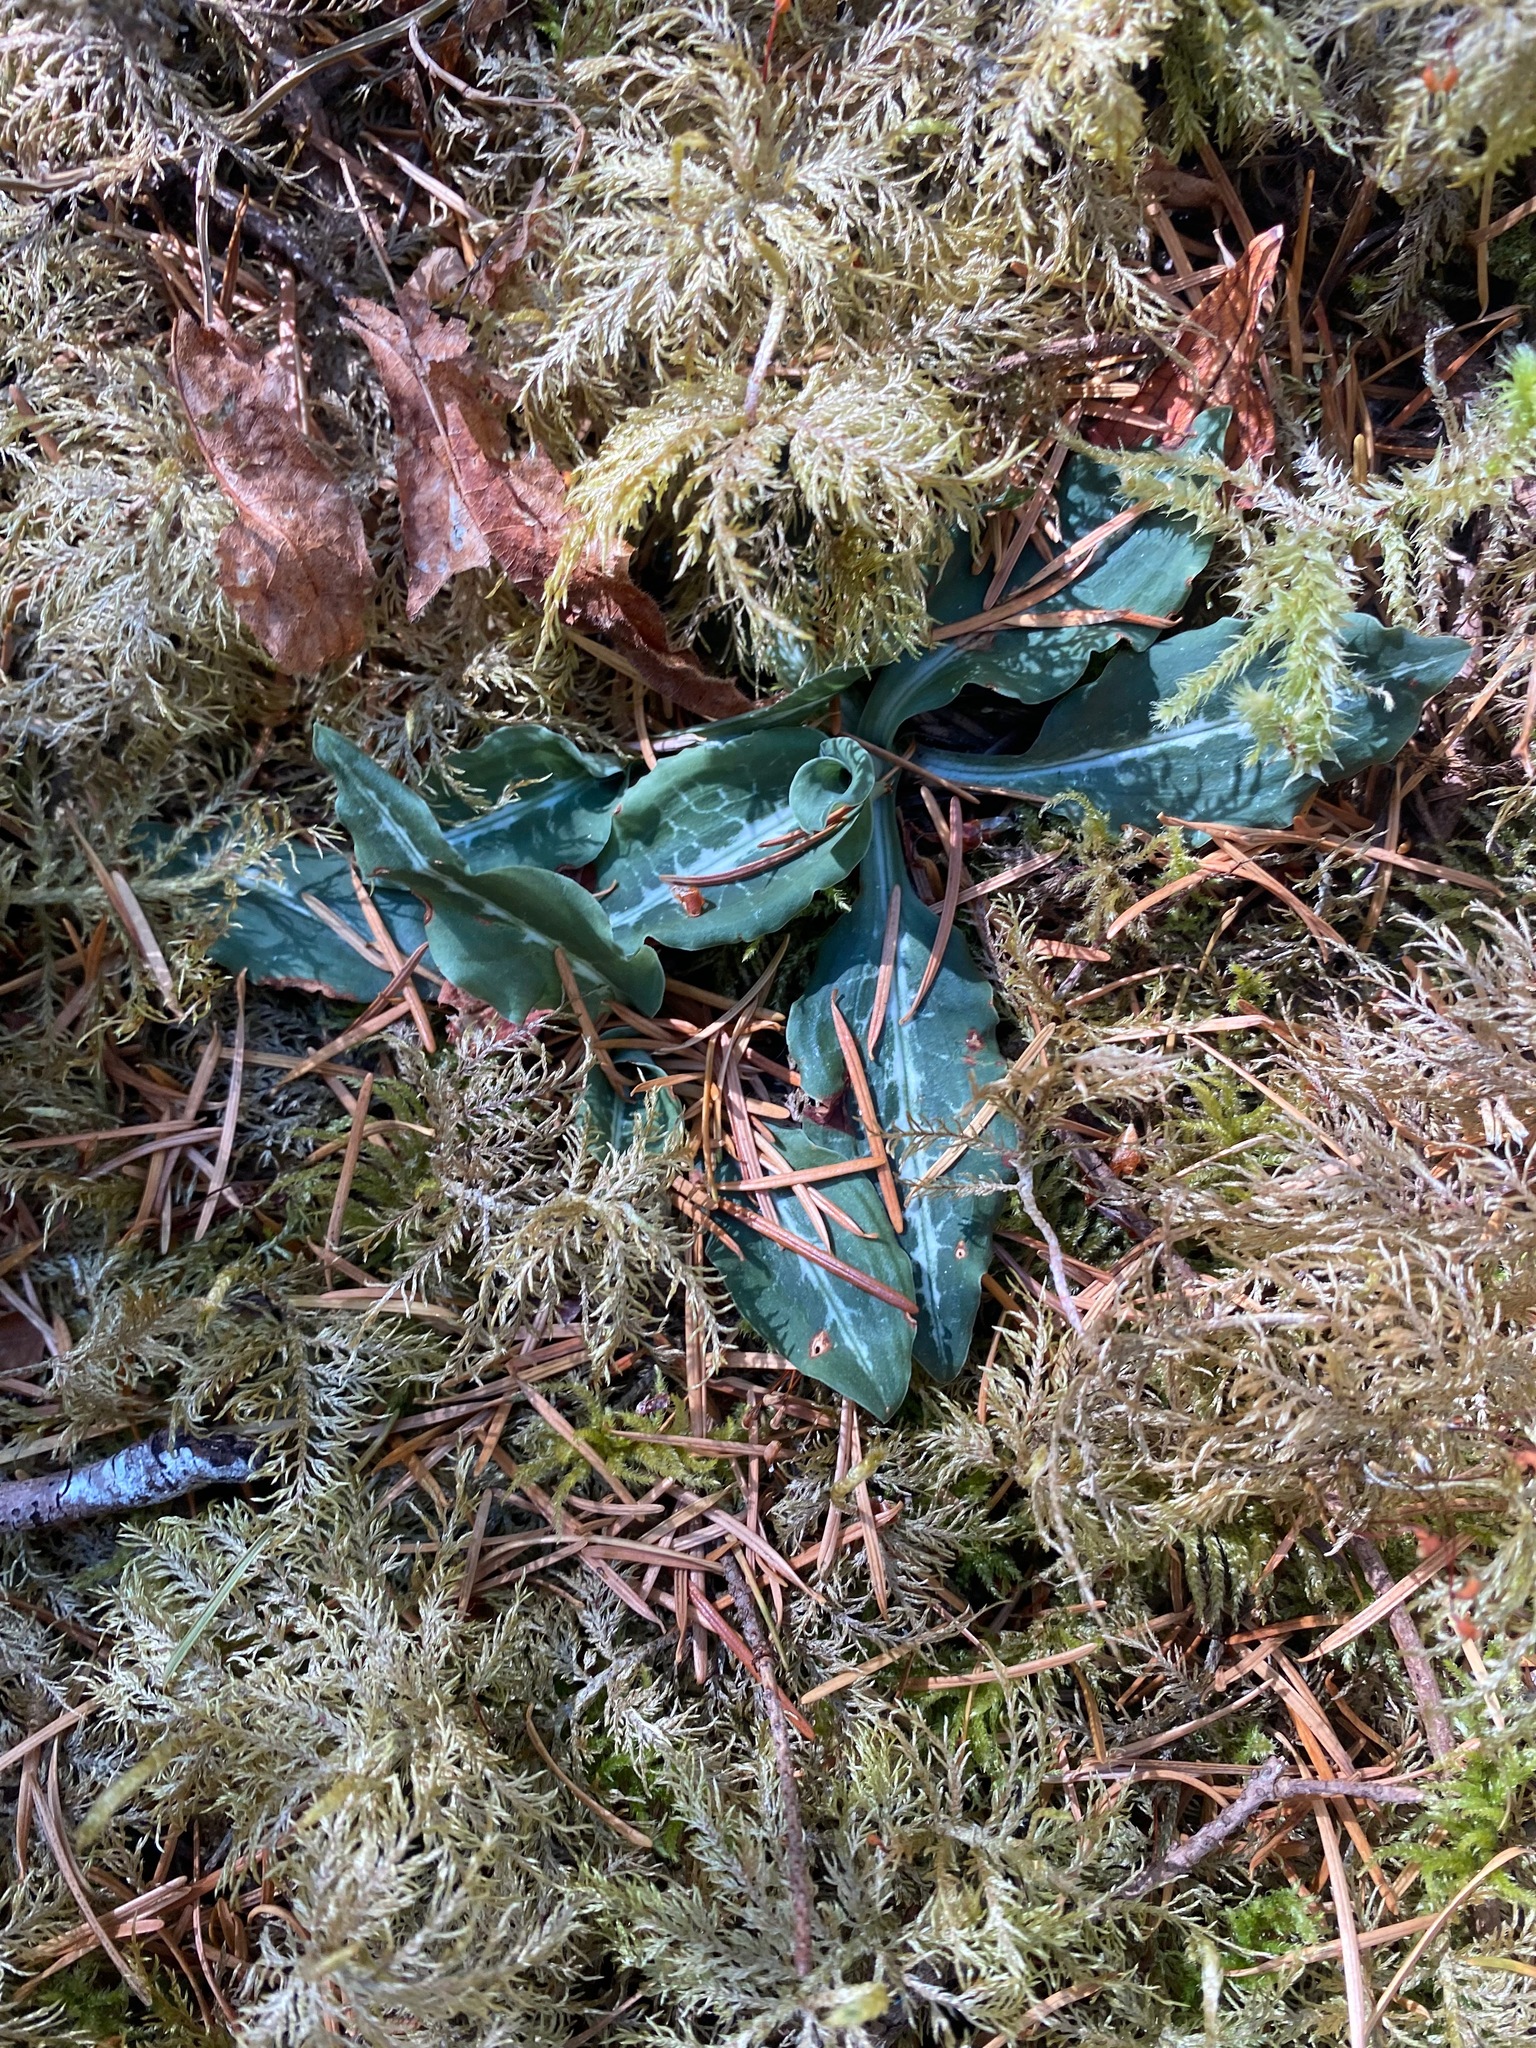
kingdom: Plantae
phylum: Tracheophyta
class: Liliopsida
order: Asparagales
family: Orchidaceae
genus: Goodyera
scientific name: Goodyera oblongifolia
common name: Giant rattlesnake-plantain
